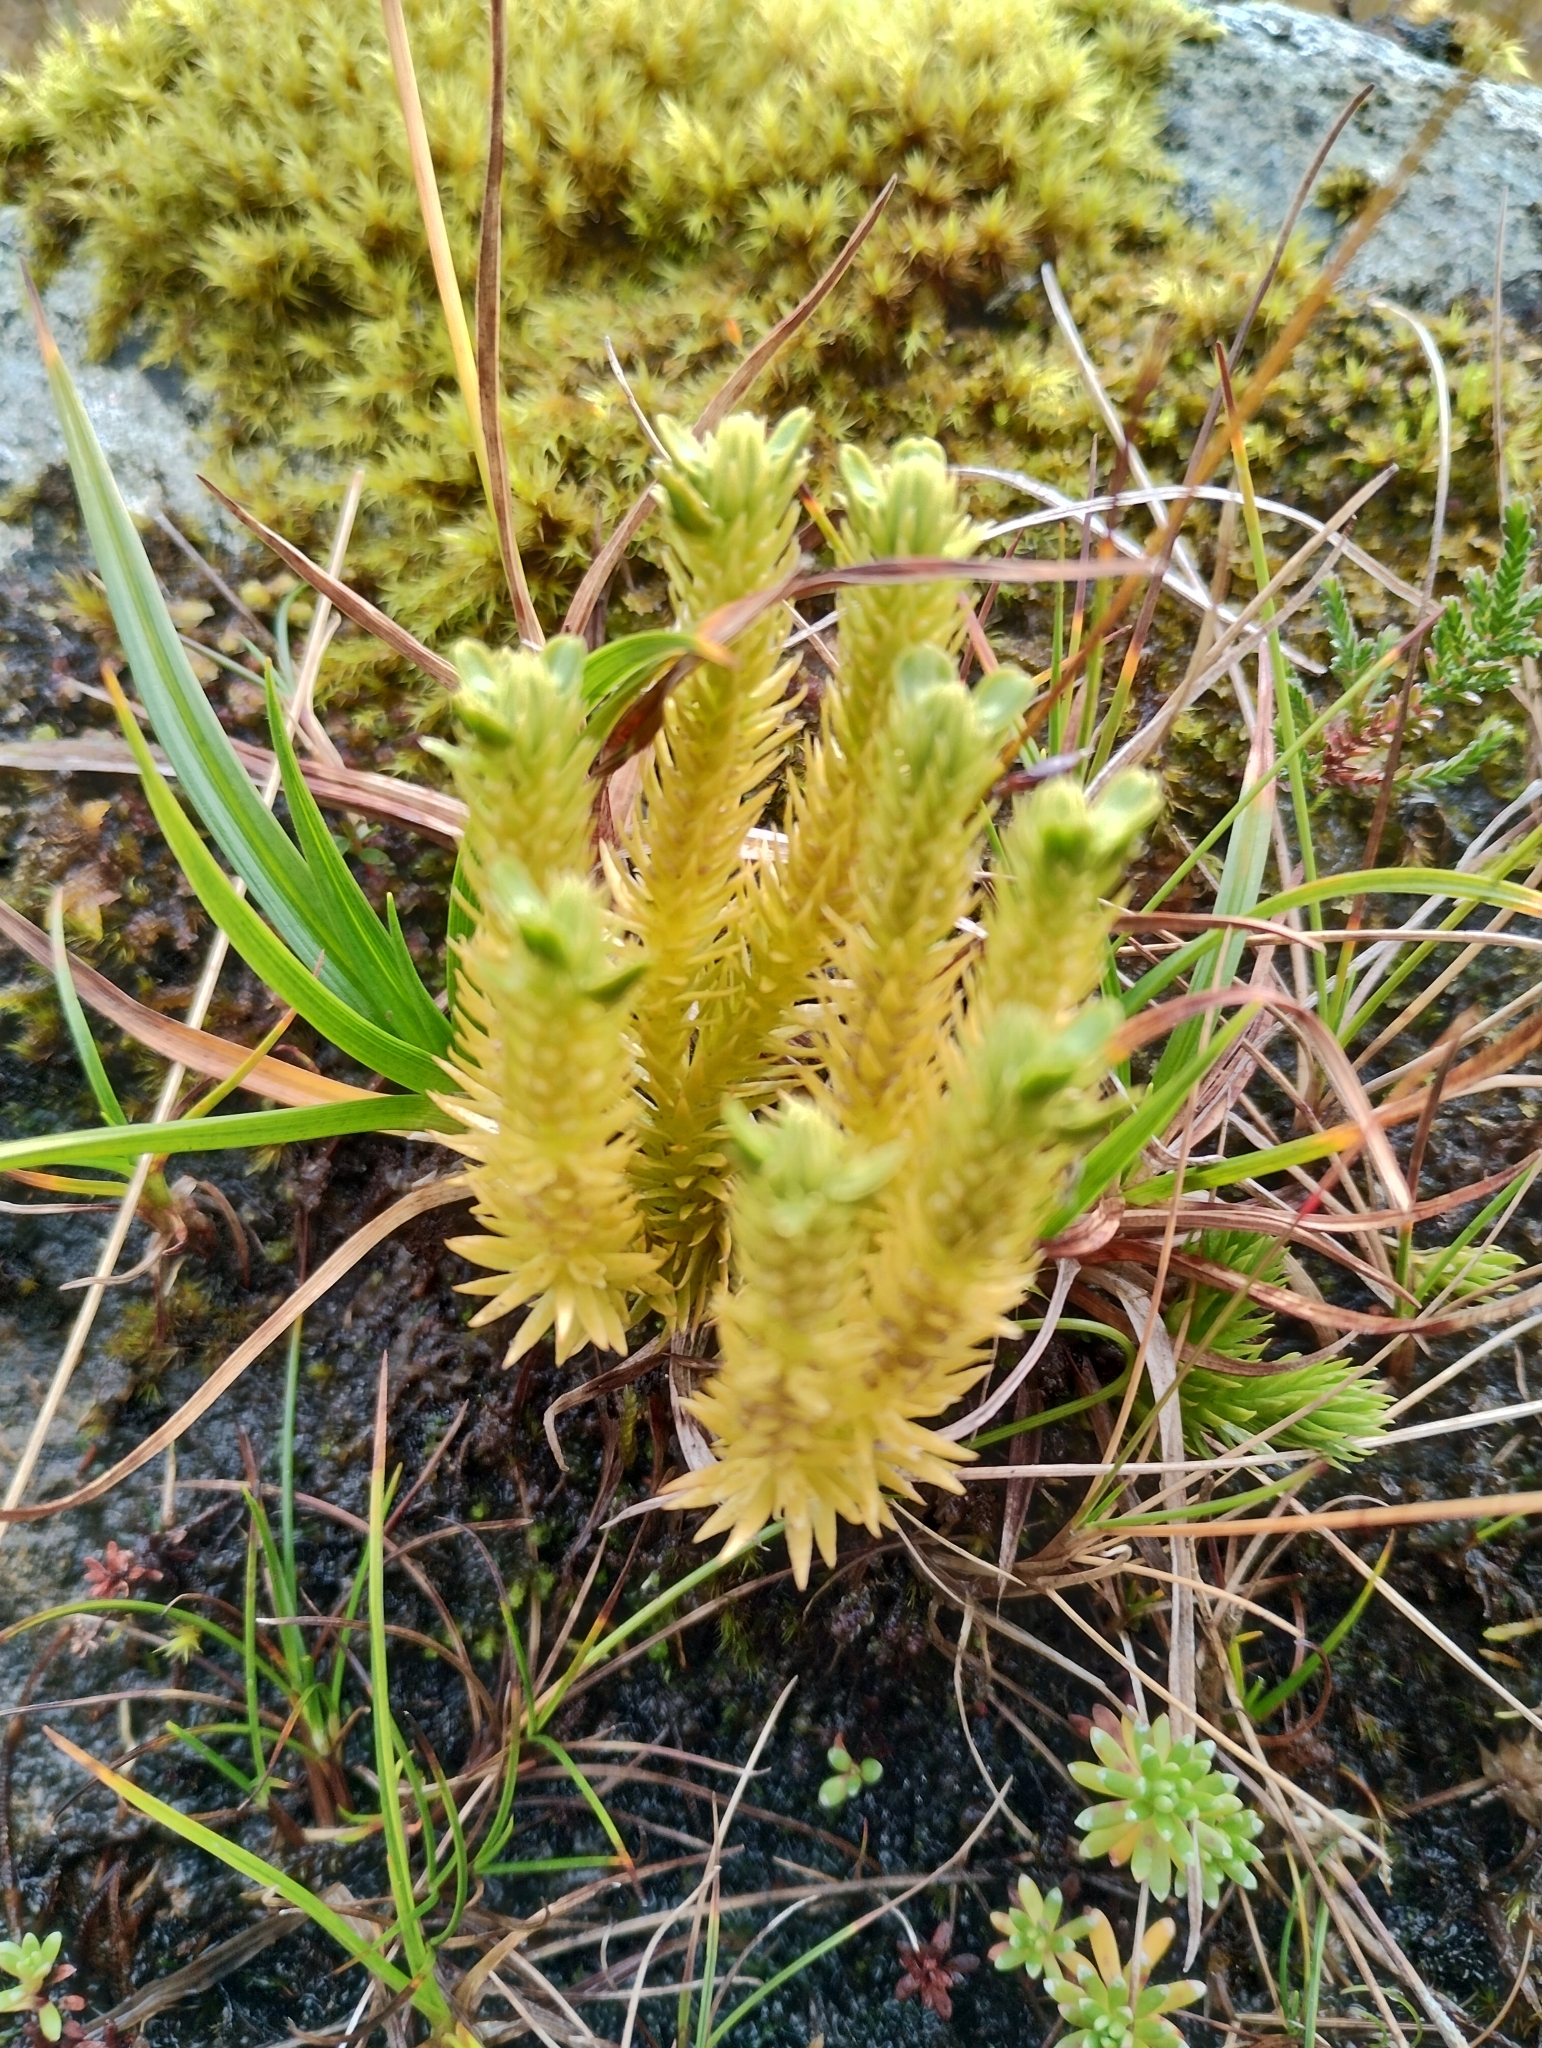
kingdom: Plantae
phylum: Tracheophyta
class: Lycopodiopsida
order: Lycopodiales
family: Lycopodiaceae
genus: Huperzia
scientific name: Huperzia selago
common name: Northern firmoss
